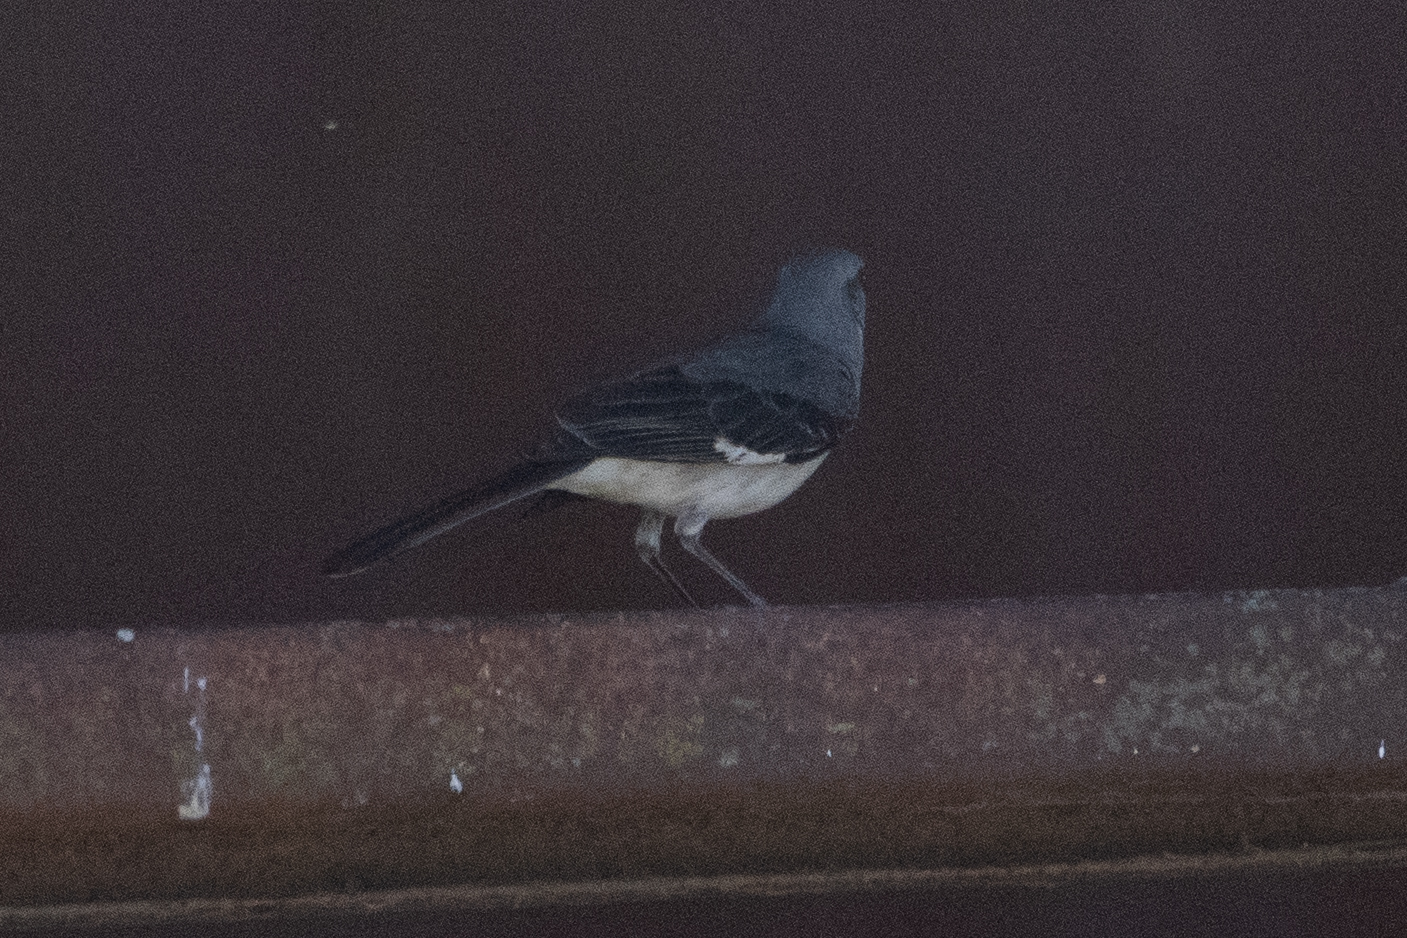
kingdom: Animalia
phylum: Chordata
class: Aves
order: Passeriformes
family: Mimidae
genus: Mimus
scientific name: Mimus polyglottos
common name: Northern mockingbird
